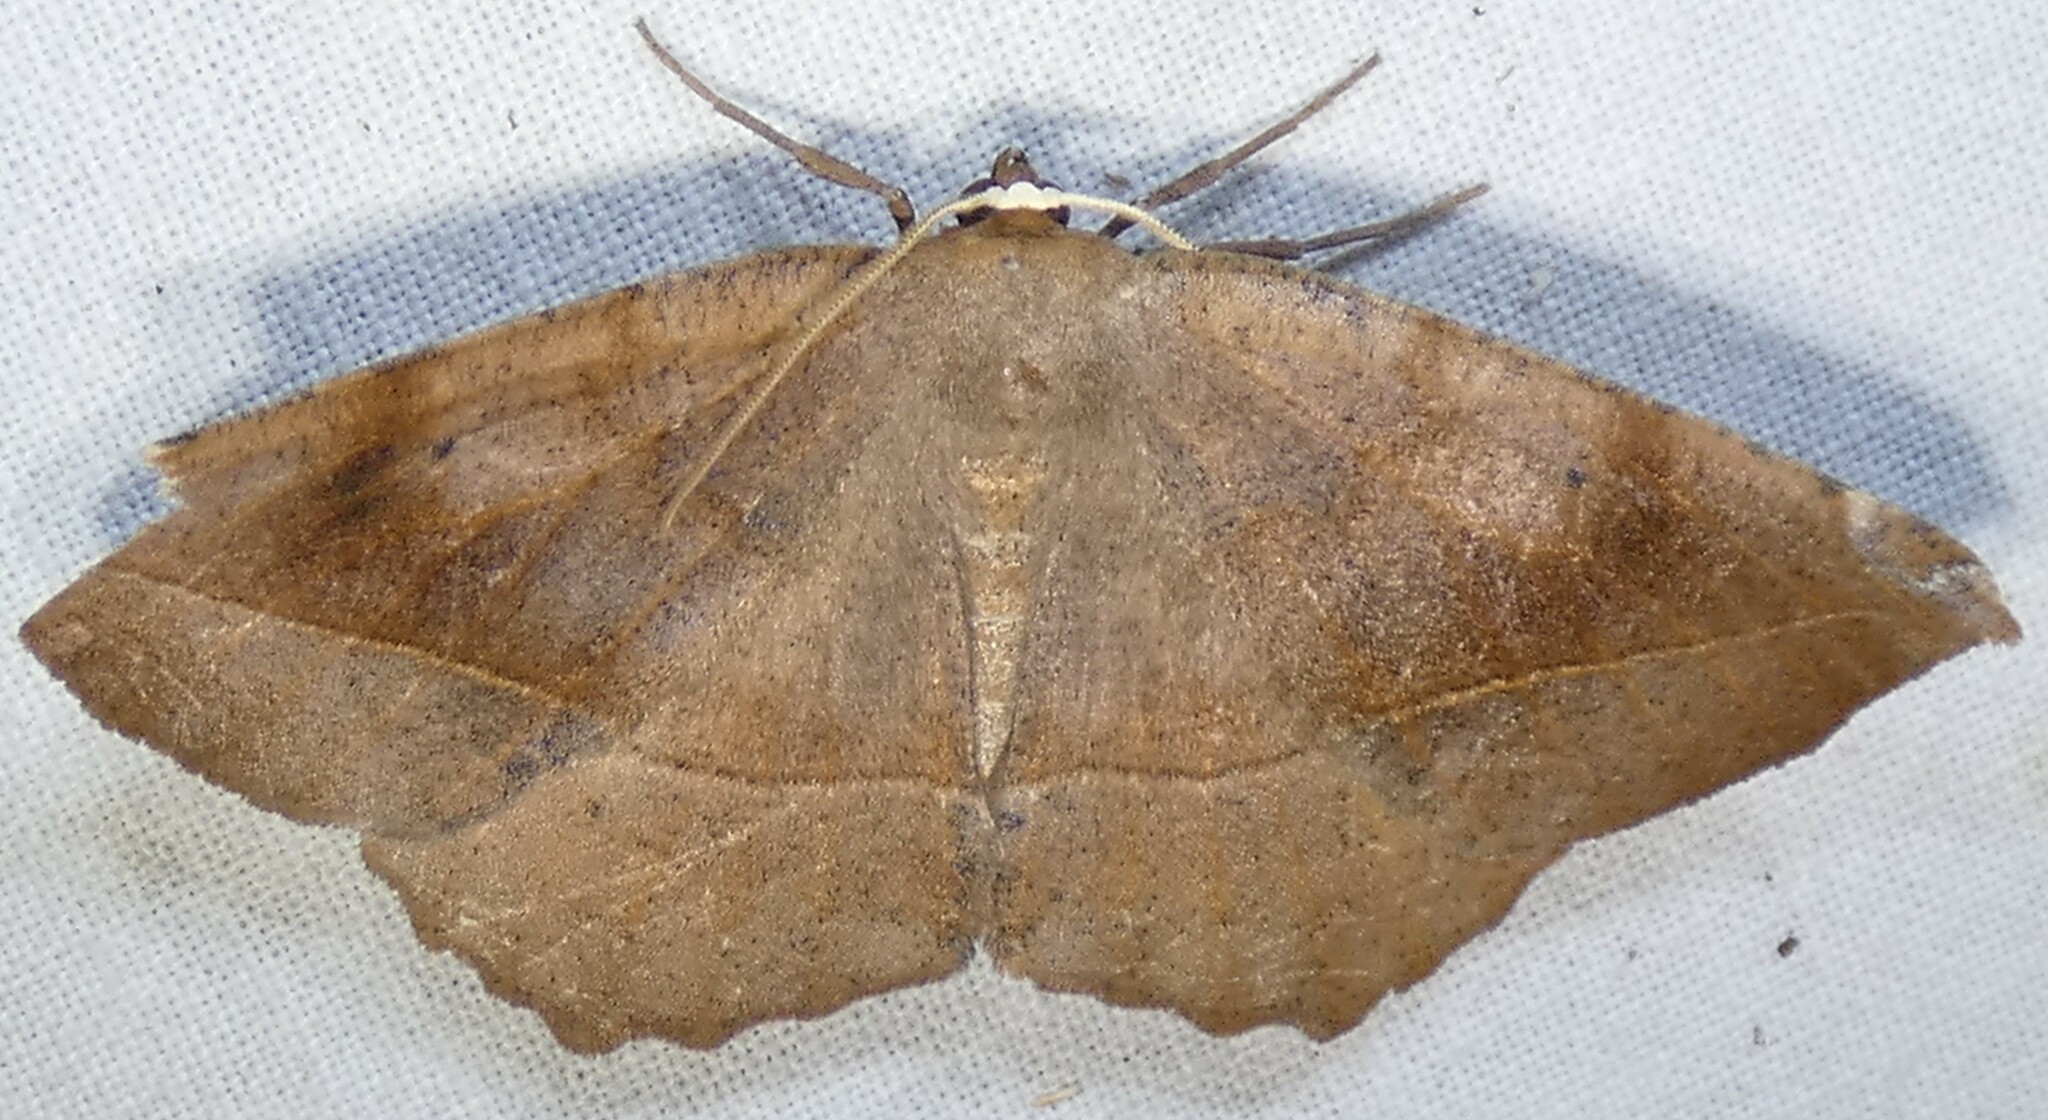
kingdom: Animalia
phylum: Arthropoda
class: Insecta
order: Lepidoptera
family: Geometridae
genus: Eutrapela
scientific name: Eutrapela clemataria
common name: Curved-toothed geometer
